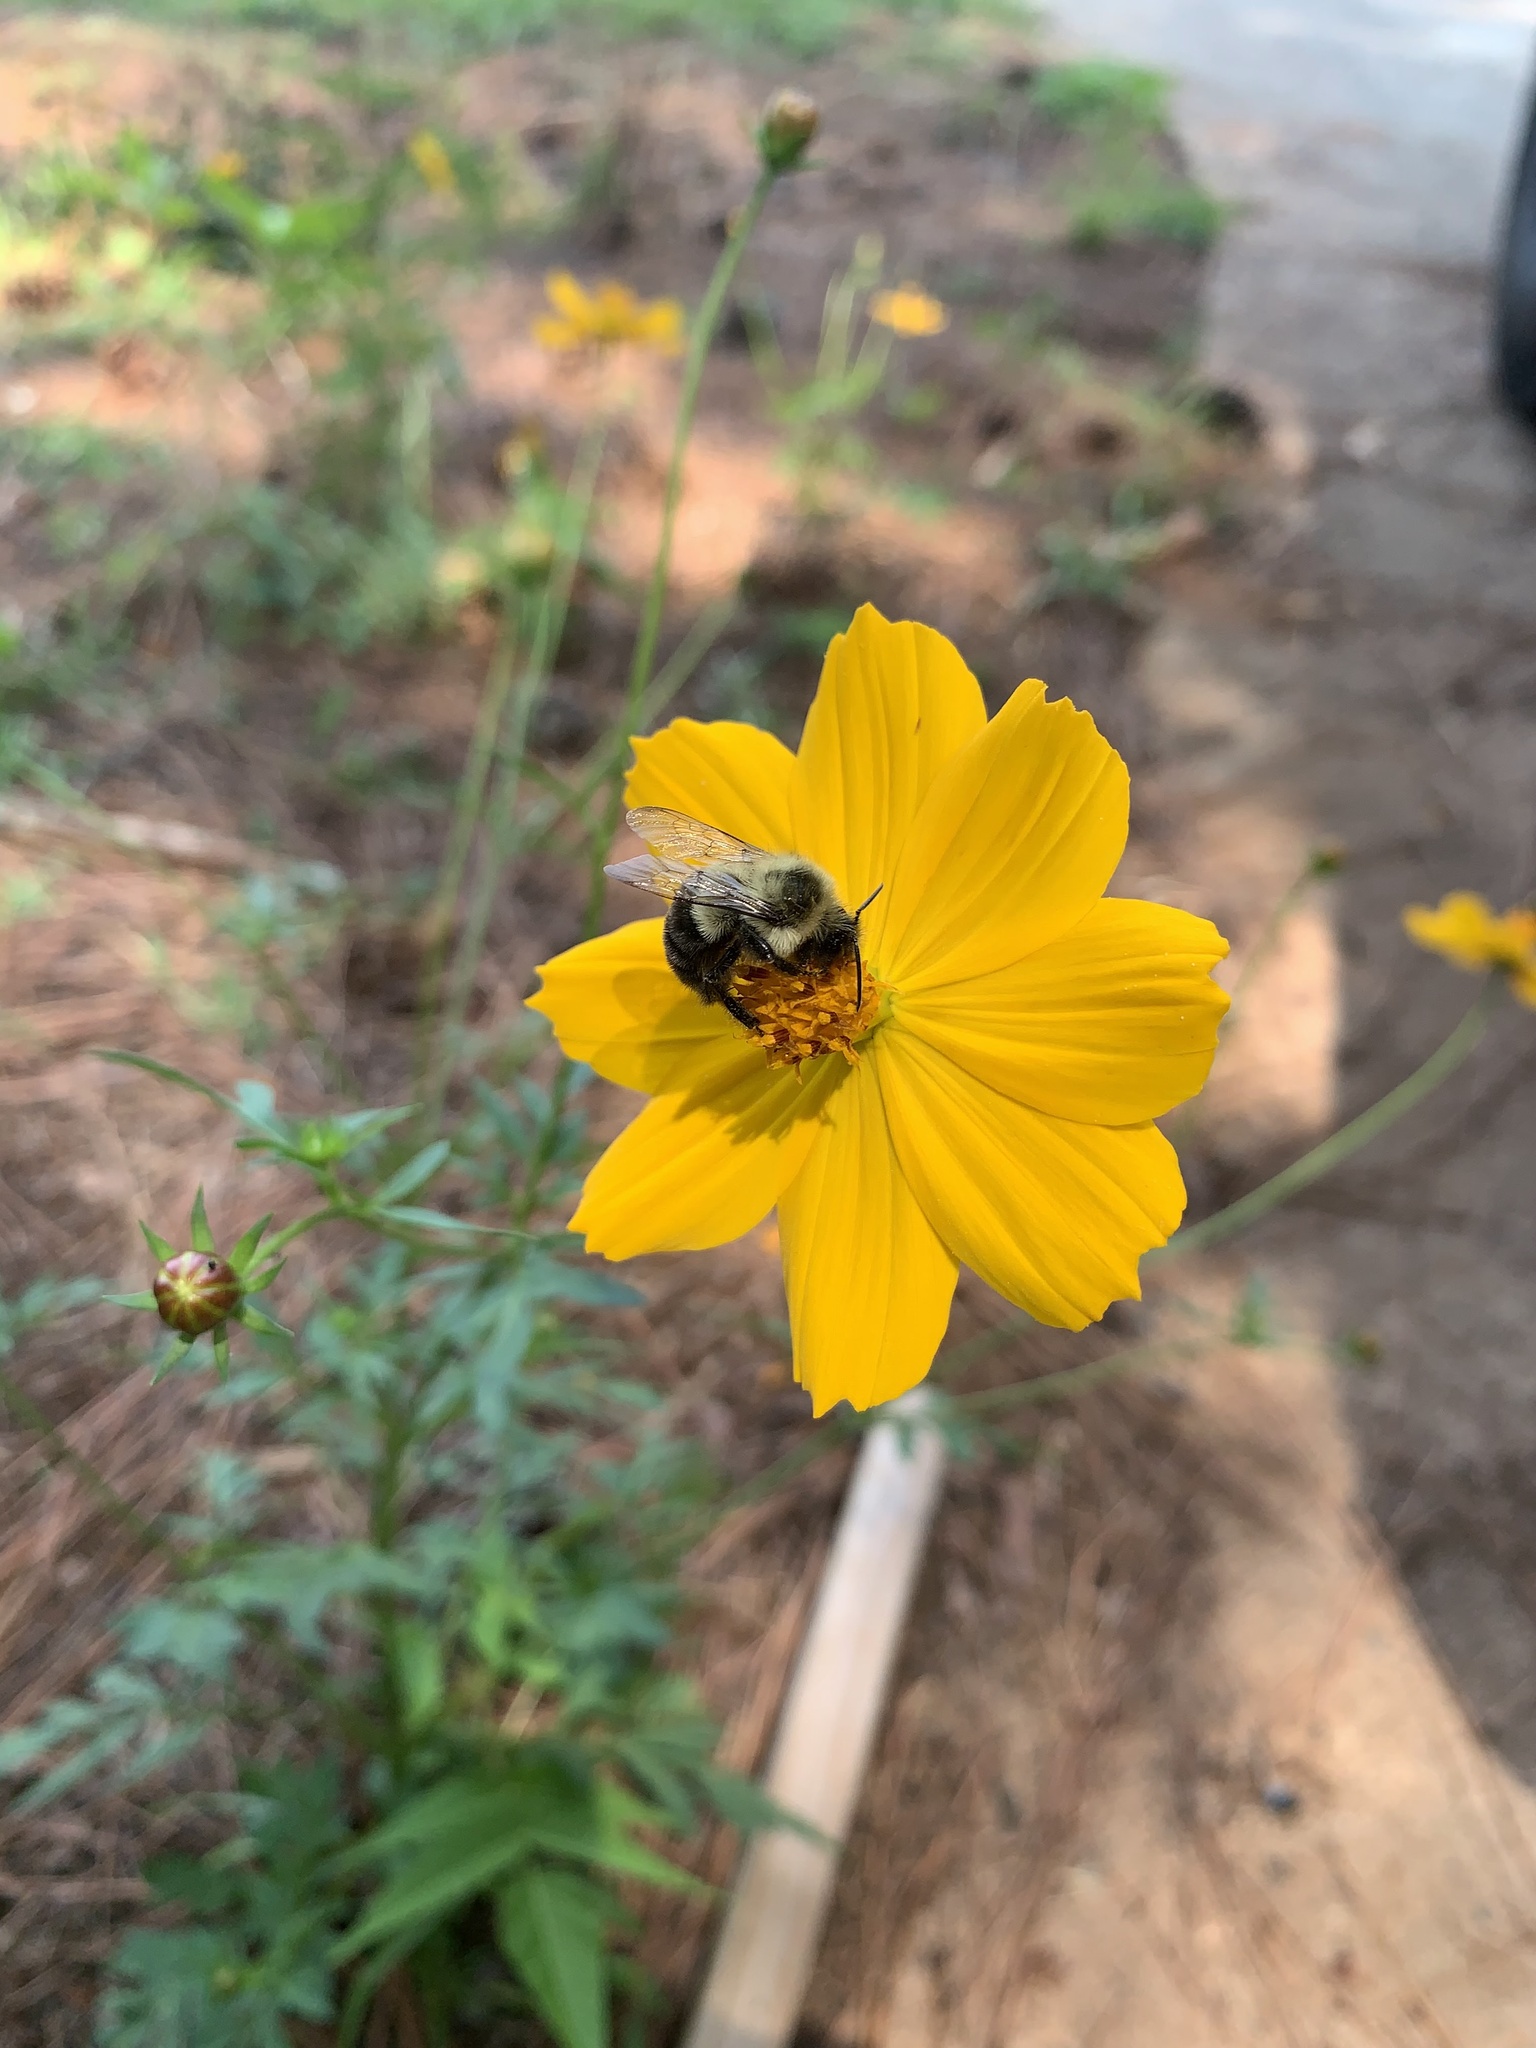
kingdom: Animalia
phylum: Arthropoda
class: Insecta
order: Hymenoptera
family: Apidae
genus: Bombus
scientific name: Bombus impatiens
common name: Common eastern bumble bee
